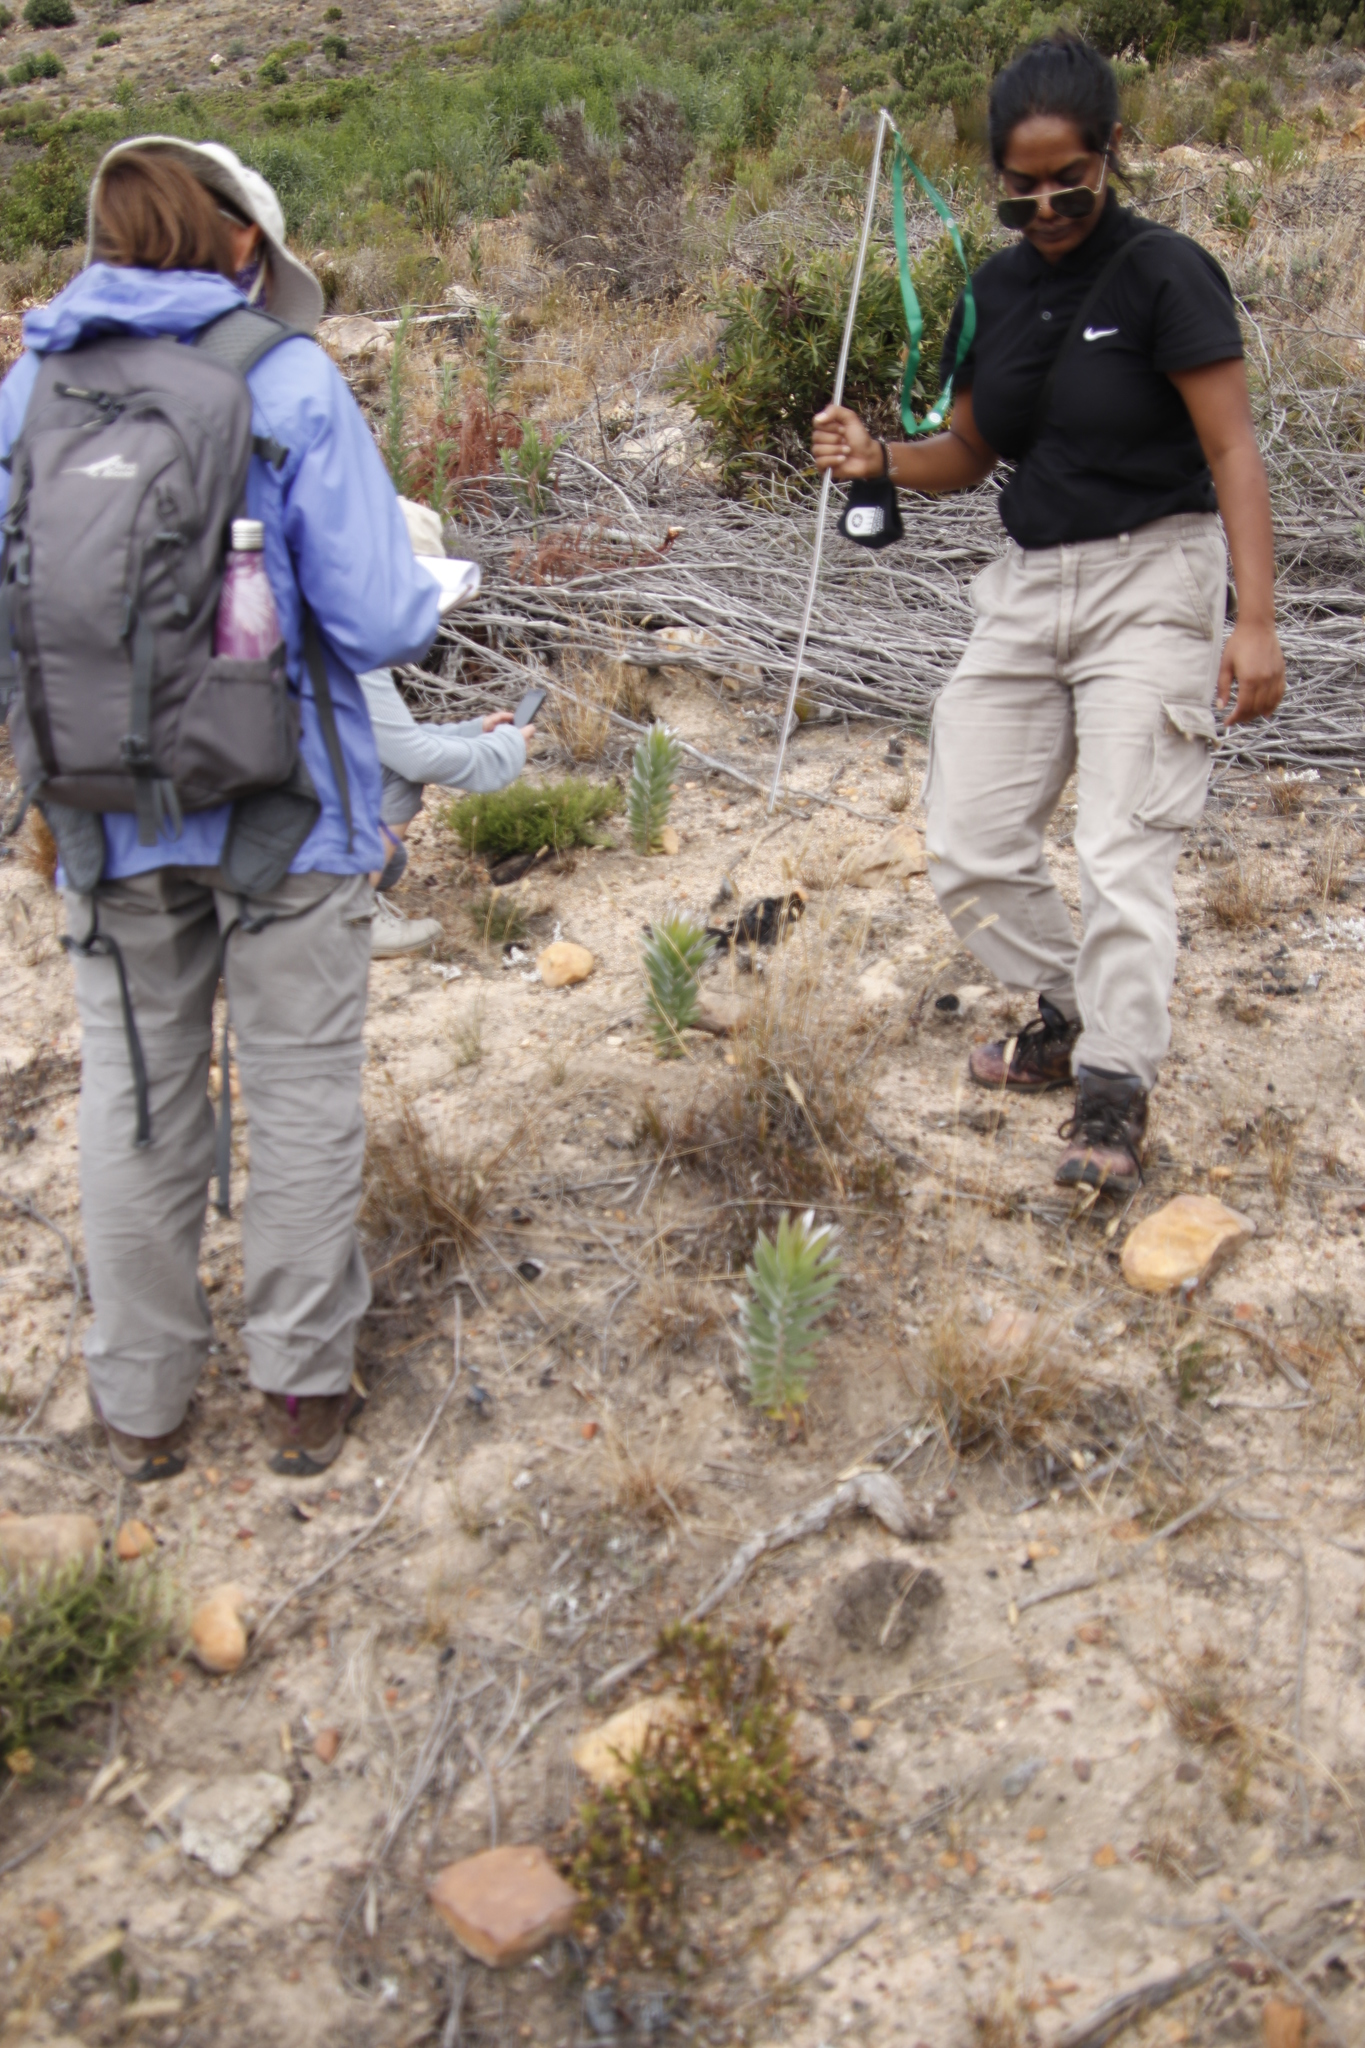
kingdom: Plantae
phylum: Tracheophyta
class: Magnoliopsida
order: Proteales
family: Proteaceae
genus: Leucadendron
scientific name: Leucadendron argenteum
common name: Cape silver tree
